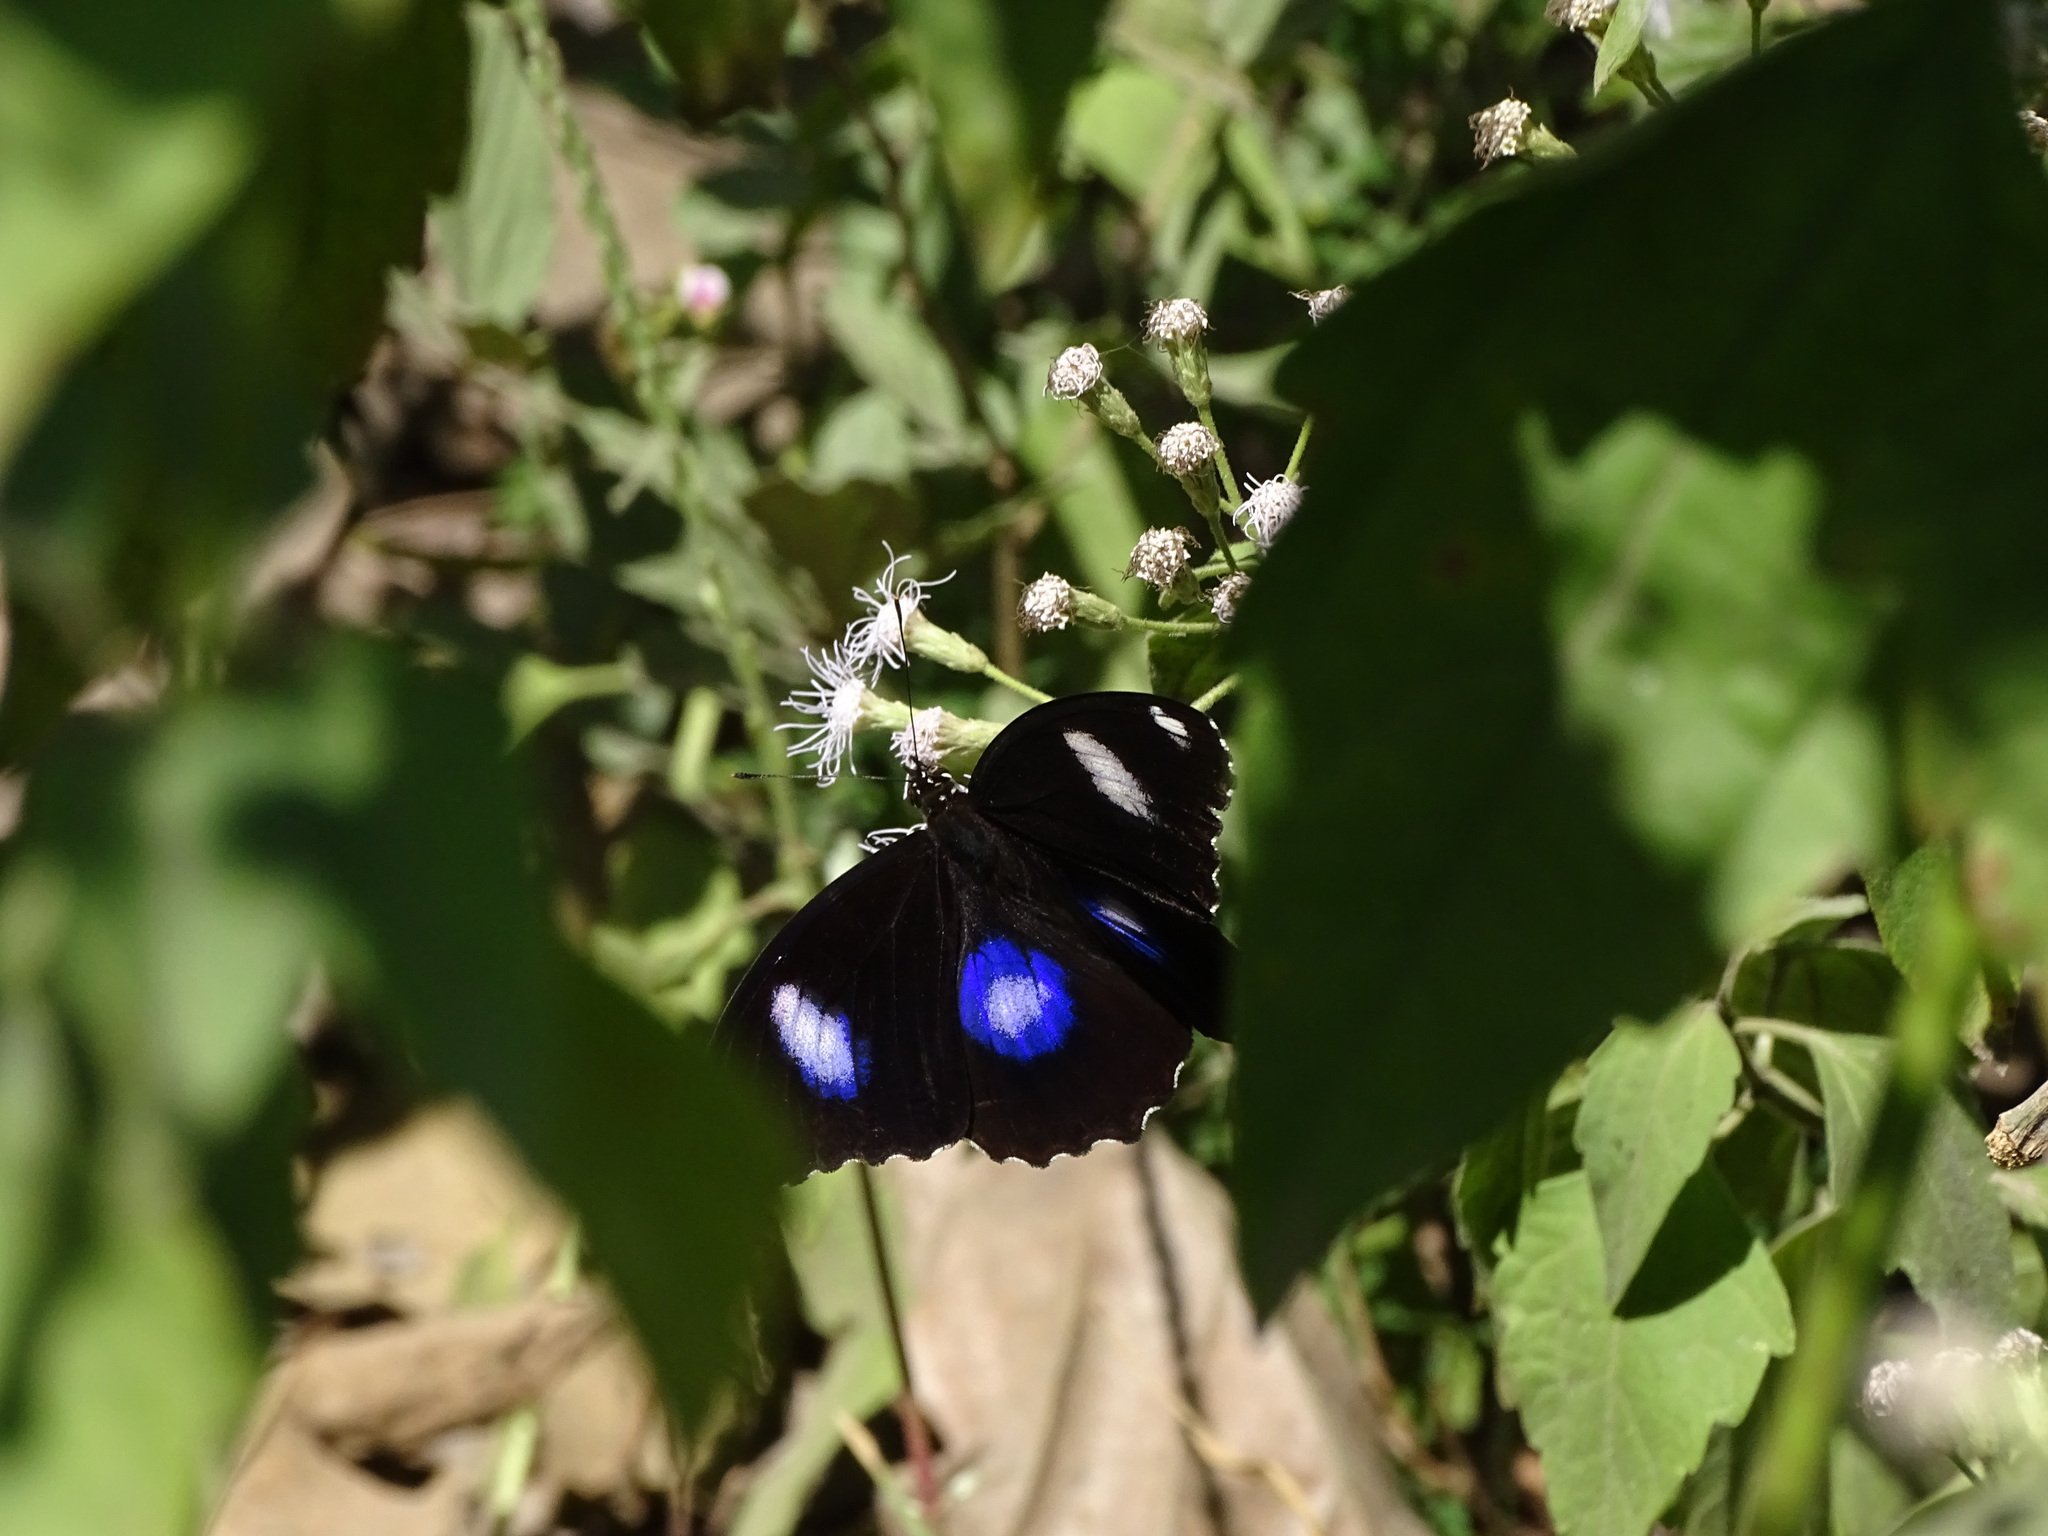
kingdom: Animalia
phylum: Arthropoda
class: Insecta
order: Lepidoptera
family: Nymphalidae
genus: Hypolimnas
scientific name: Hypolimnas bolina
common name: Great eggfly
